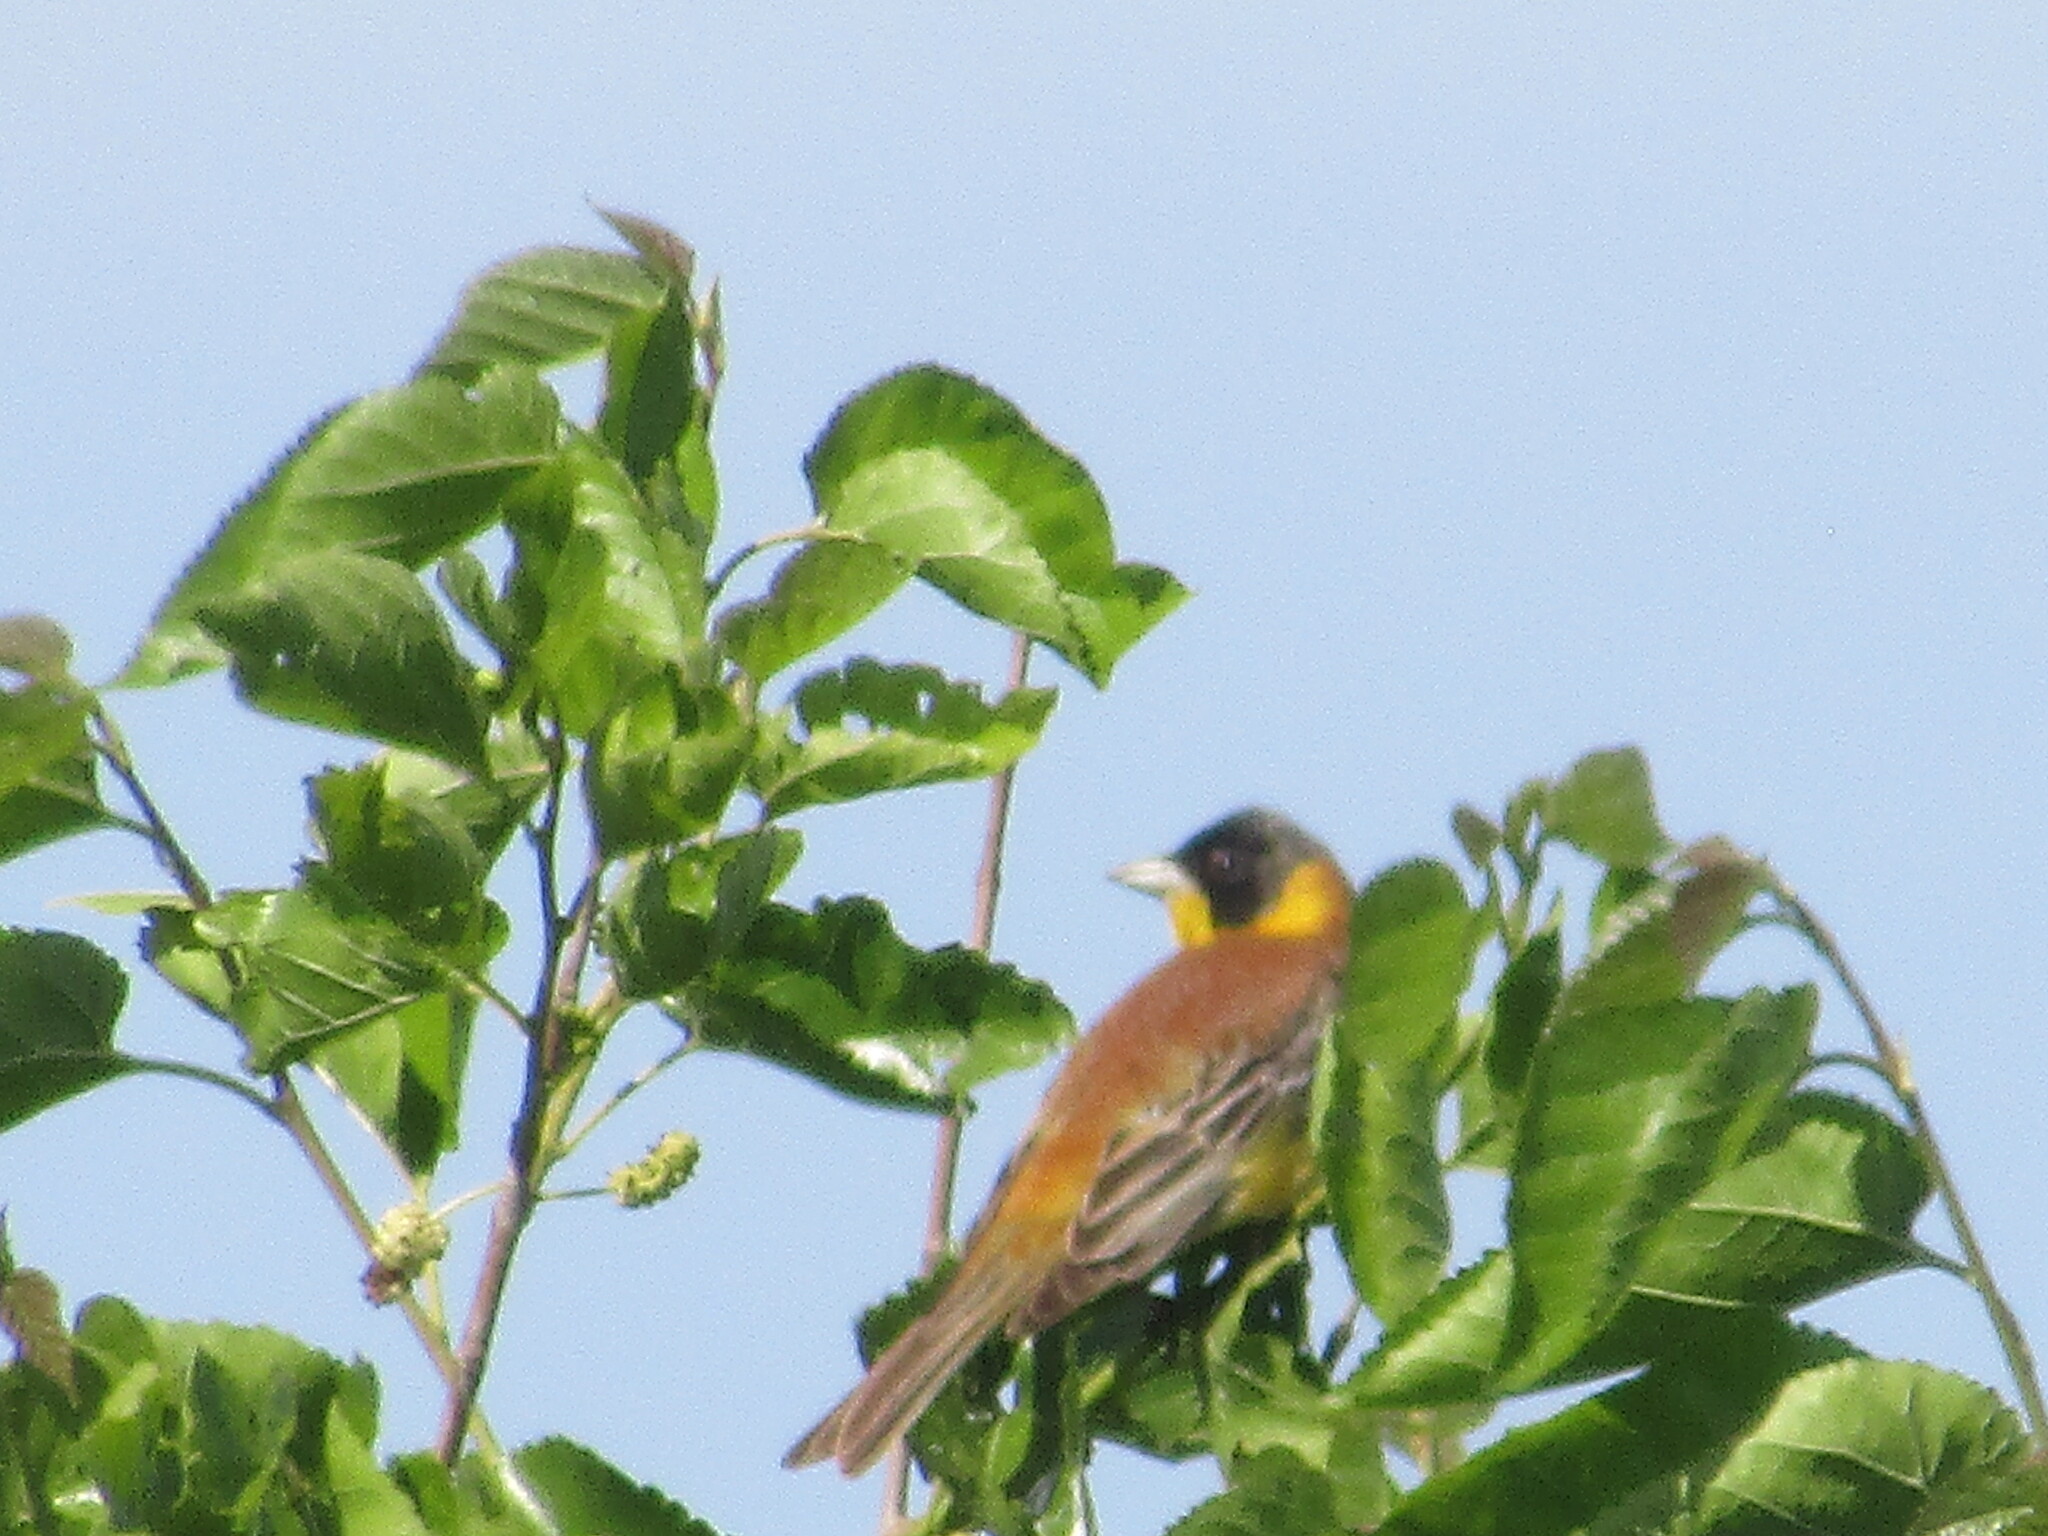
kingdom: Animalia
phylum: Chordata
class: Aves
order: Passeriformes
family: Emberizidae
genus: Emberiza
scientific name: Emberiza melanocephala
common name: Black-headed bunting
